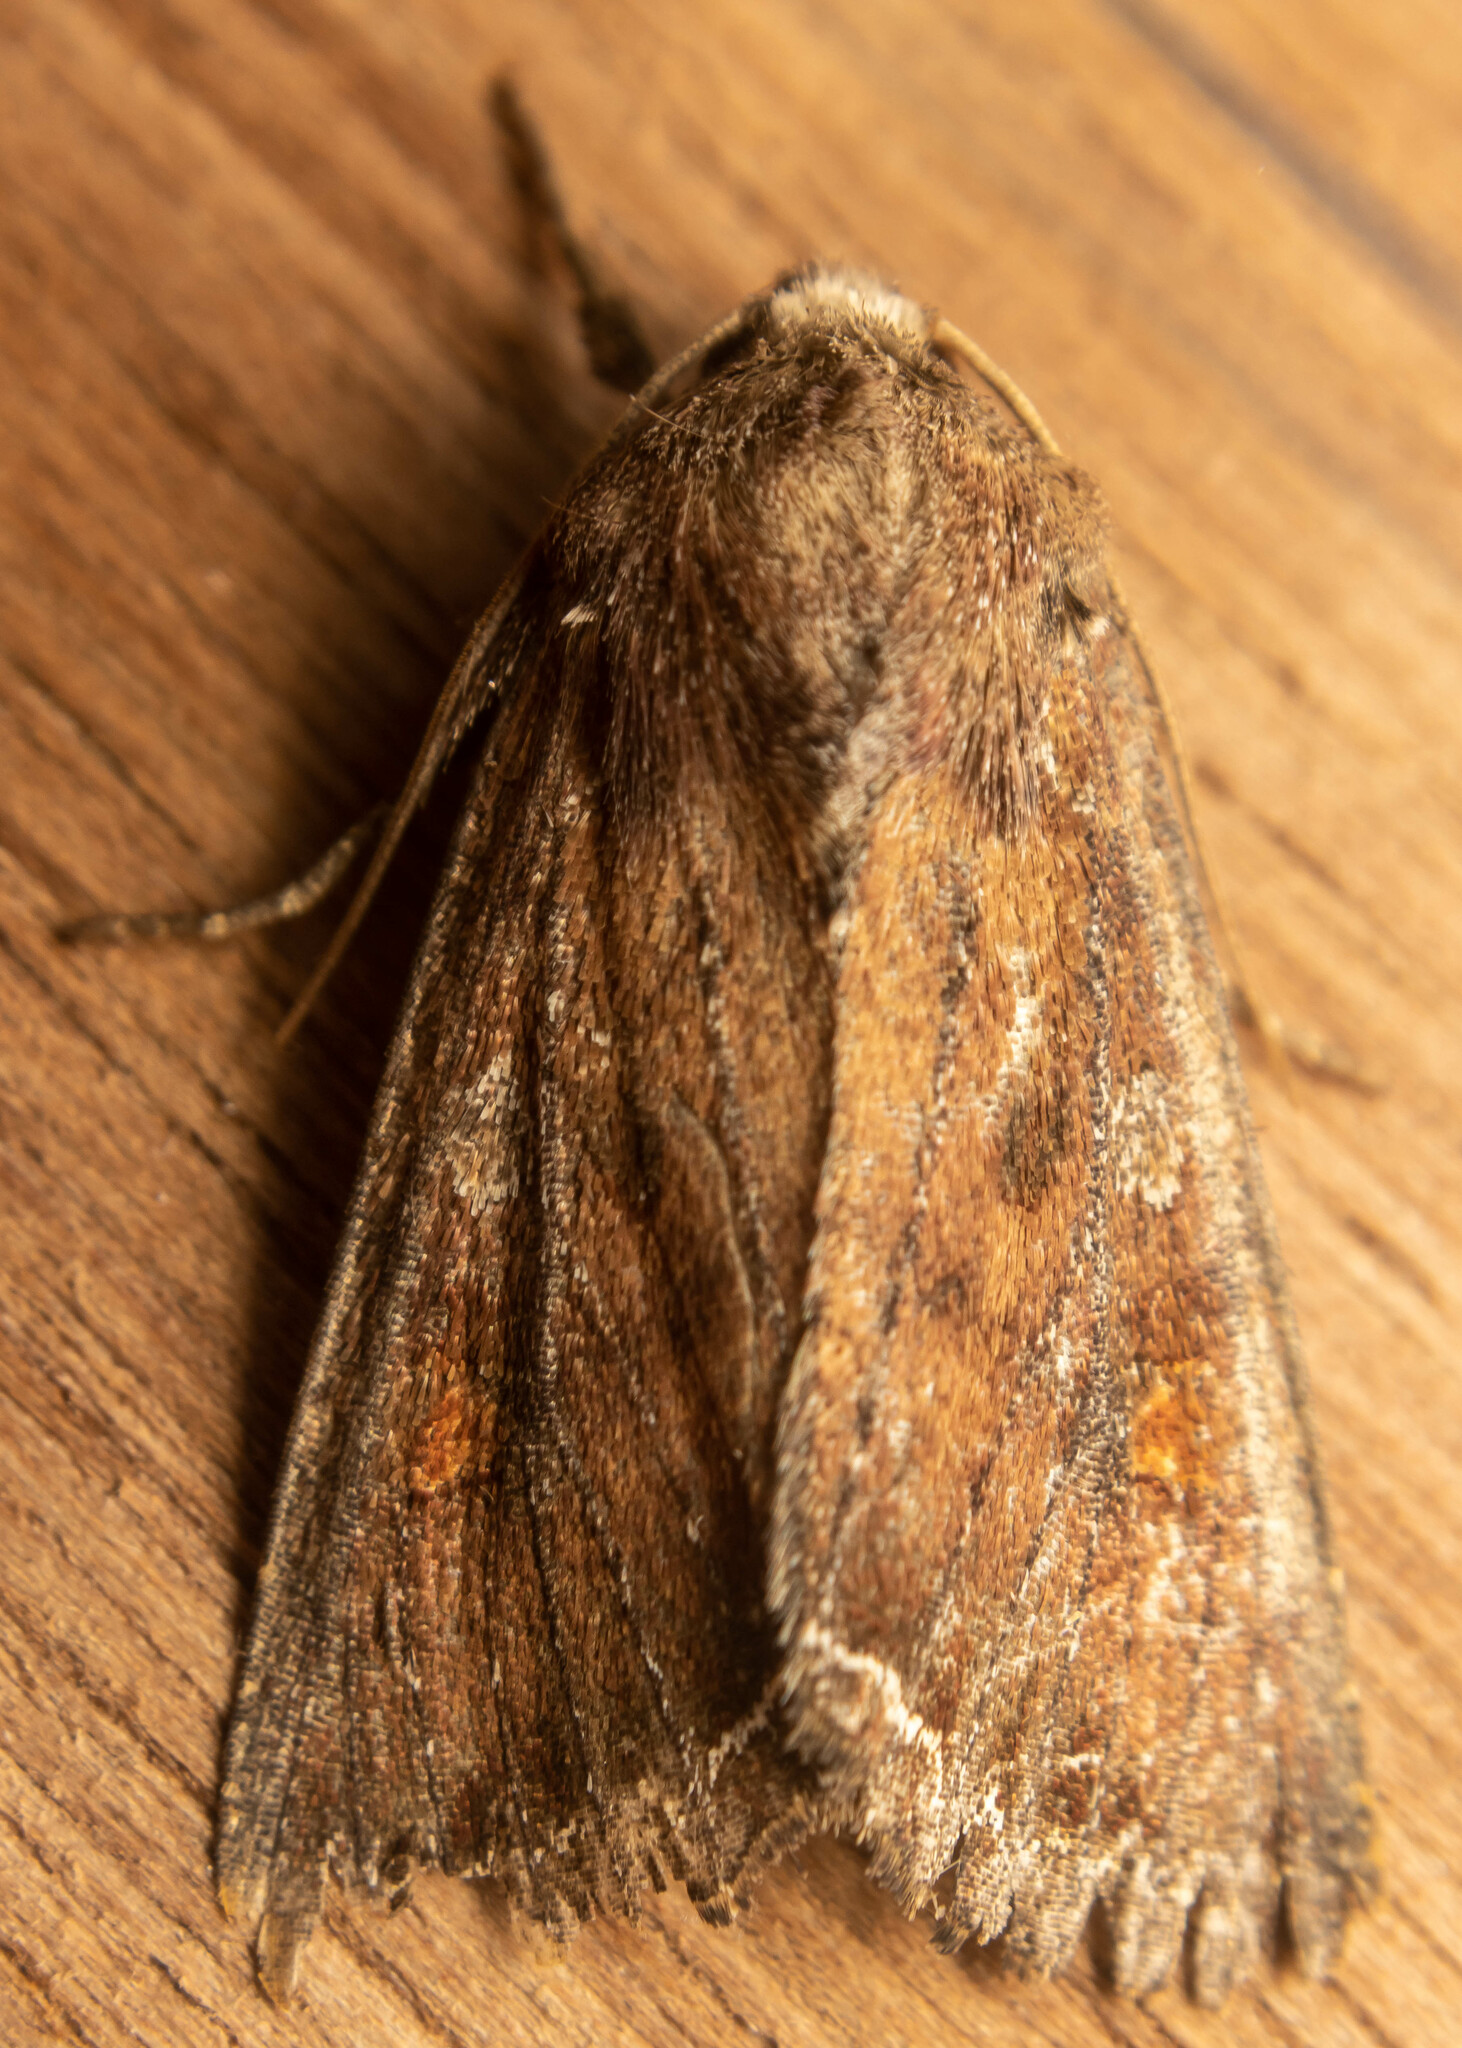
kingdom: Animalia
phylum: Arthropoda
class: Insecta
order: Lepidoptera
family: Noctuidae
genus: Lacanobia
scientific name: Lacanobia oleracea
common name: Bright-line brown-eye
